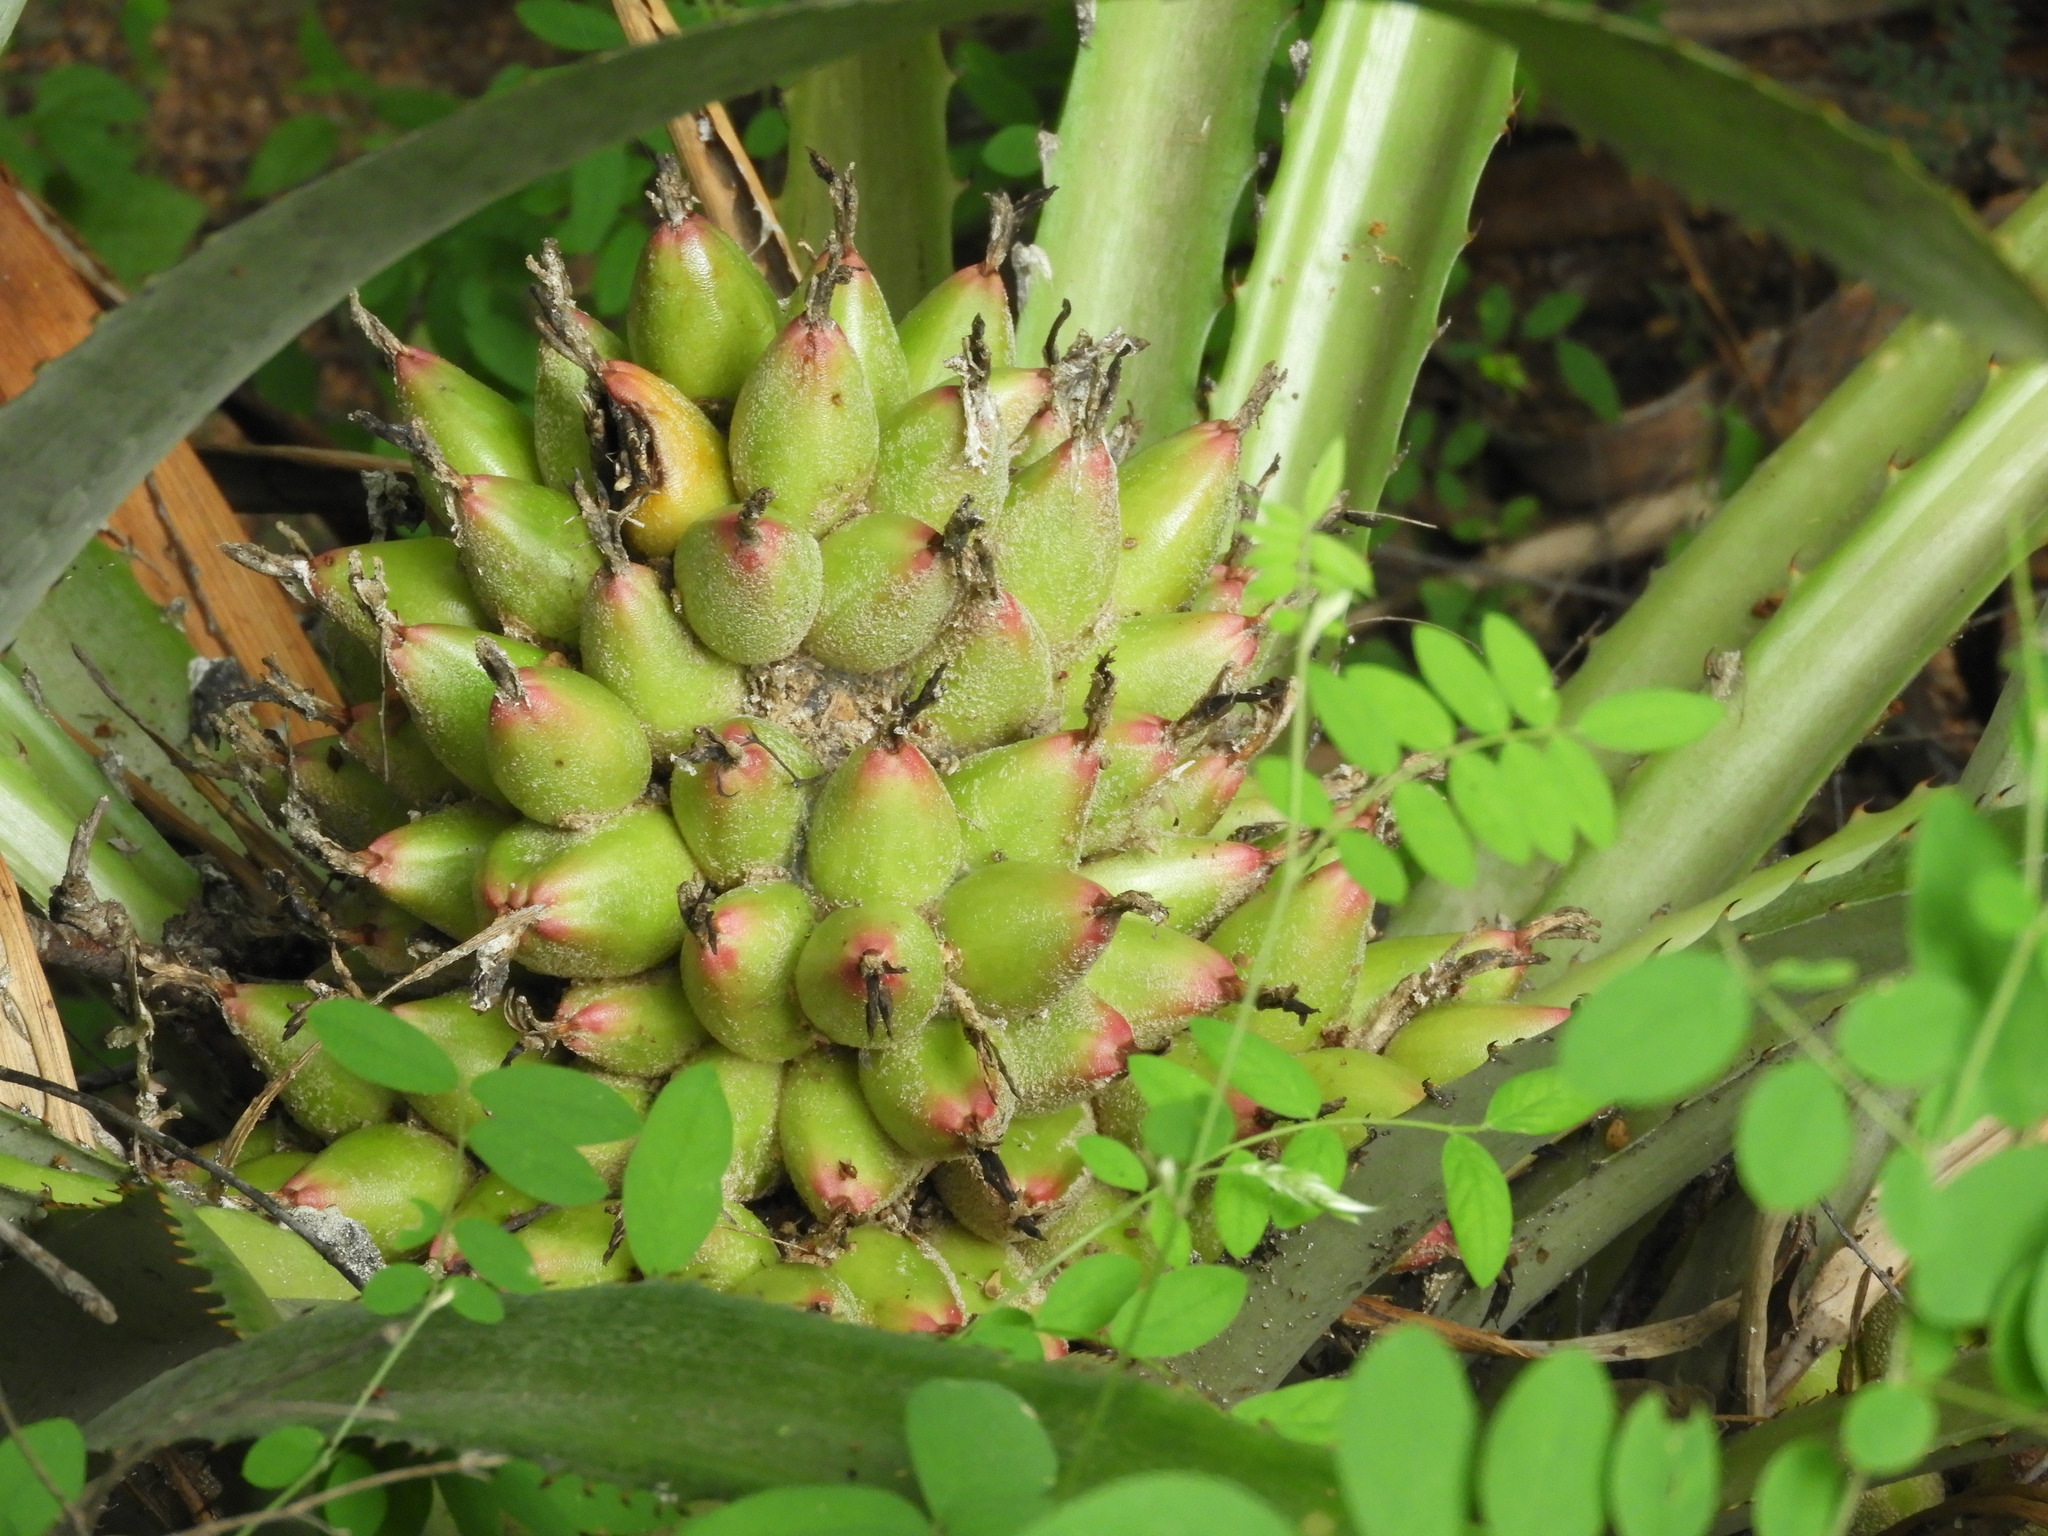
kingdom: Plantae
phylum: Tracheophyta
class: Liliopsida
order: Poales
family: Bromeliaceae
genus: Bromelia
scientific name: Bromelia hemisphaerica
